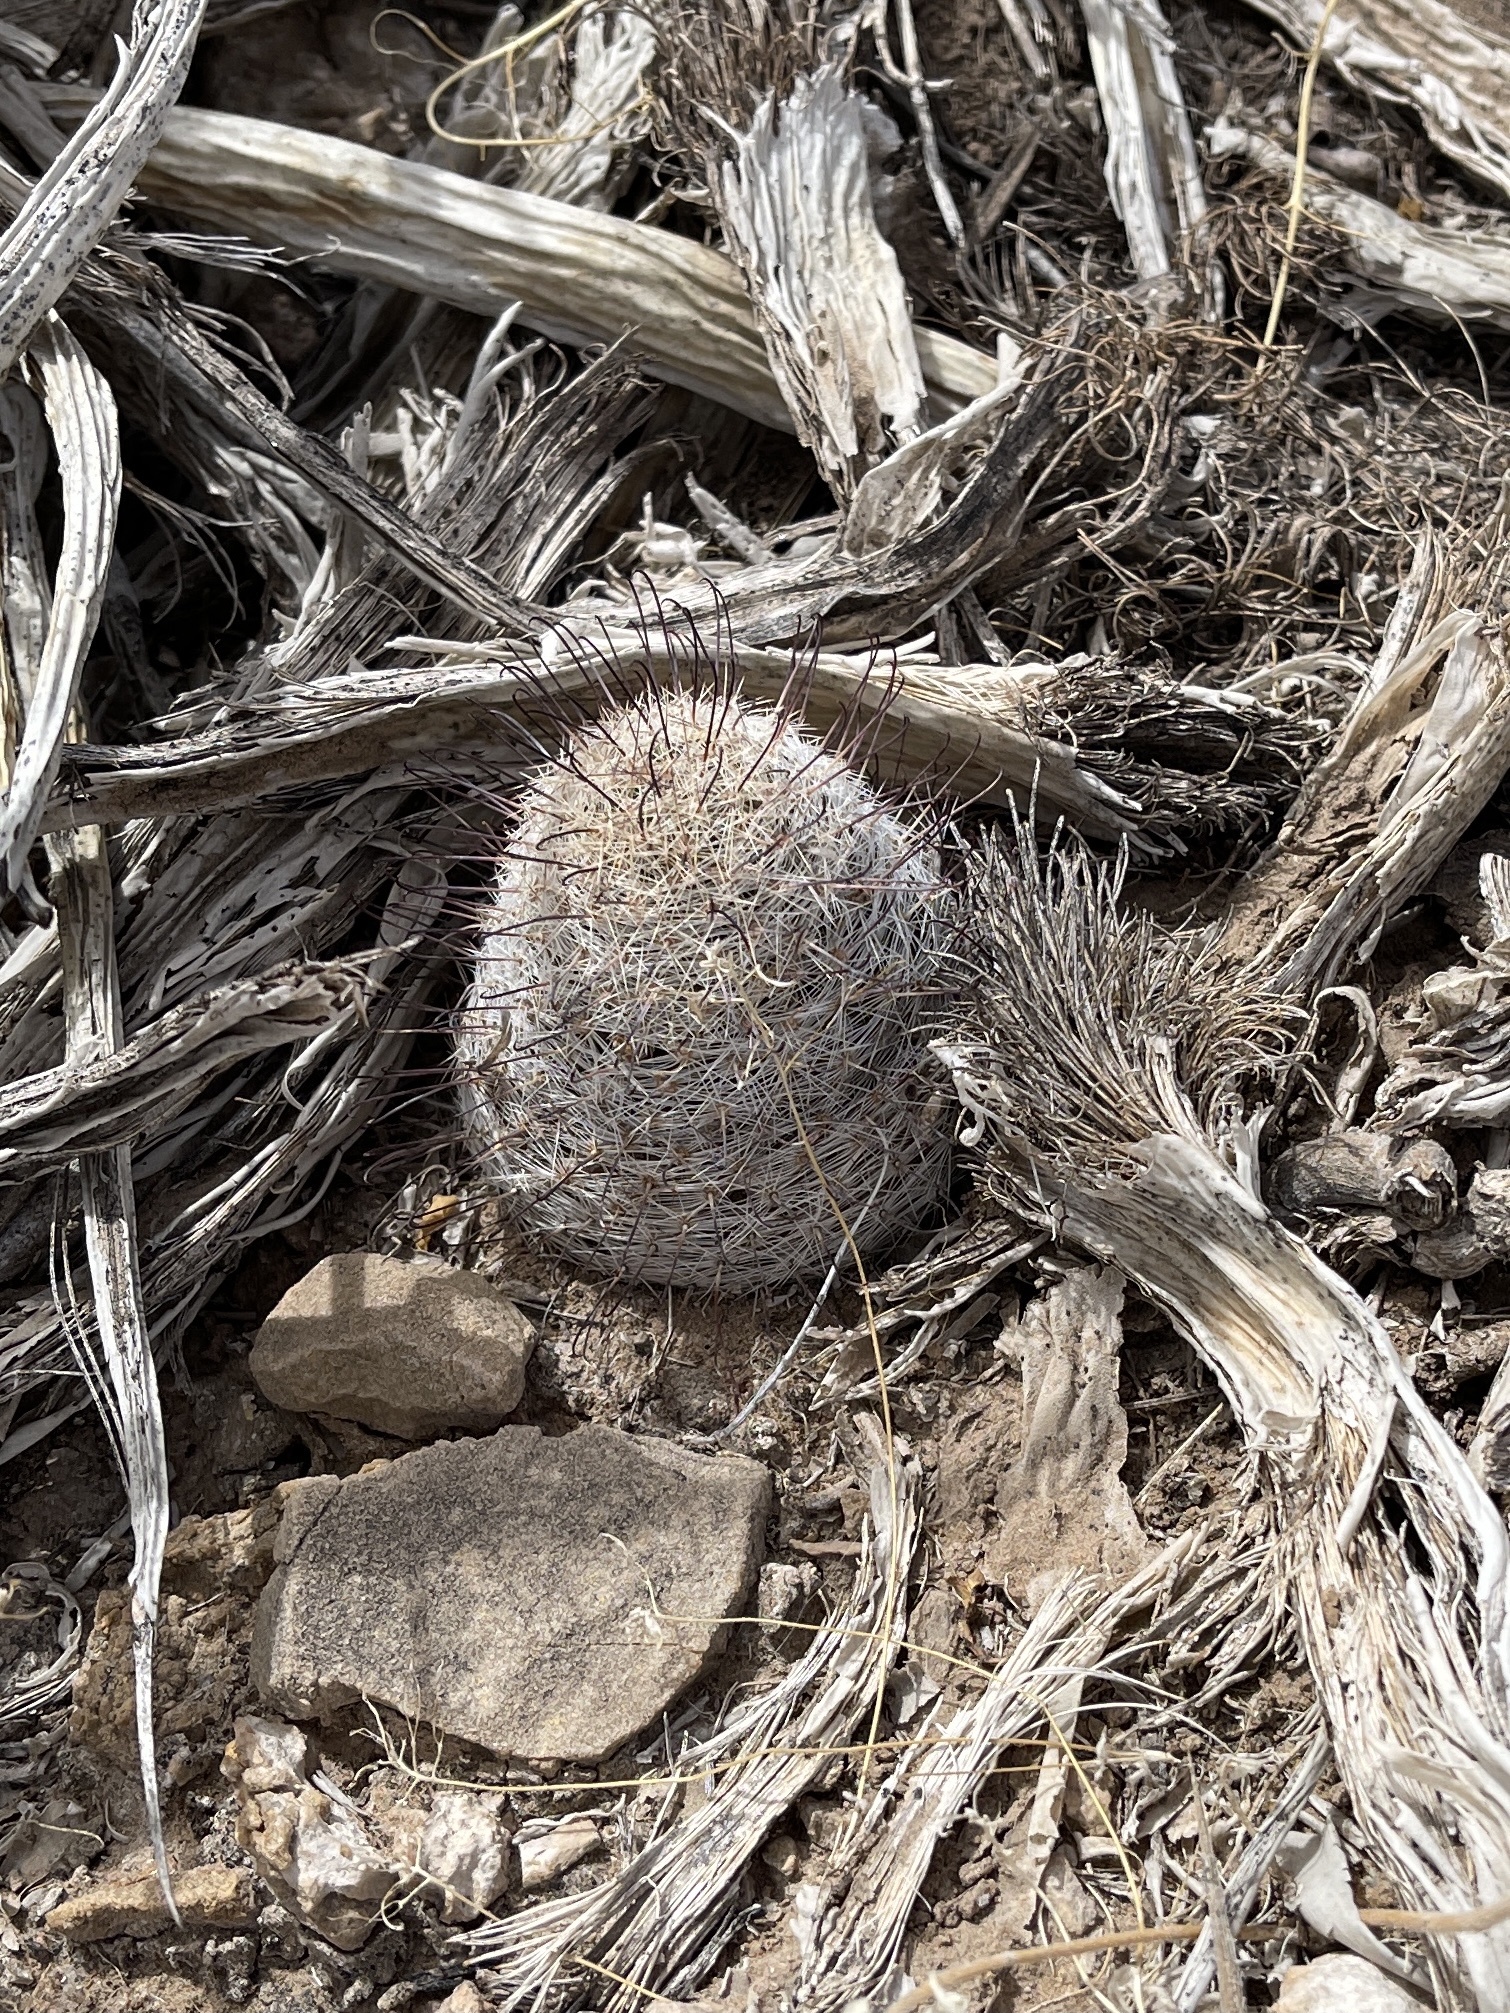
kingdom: Plantae
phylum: Tracheophyta
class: Magnoliopsida
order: Caryophyllales
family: Cactaceae
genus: Cochemiea
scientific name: Cochemiea grahamii
